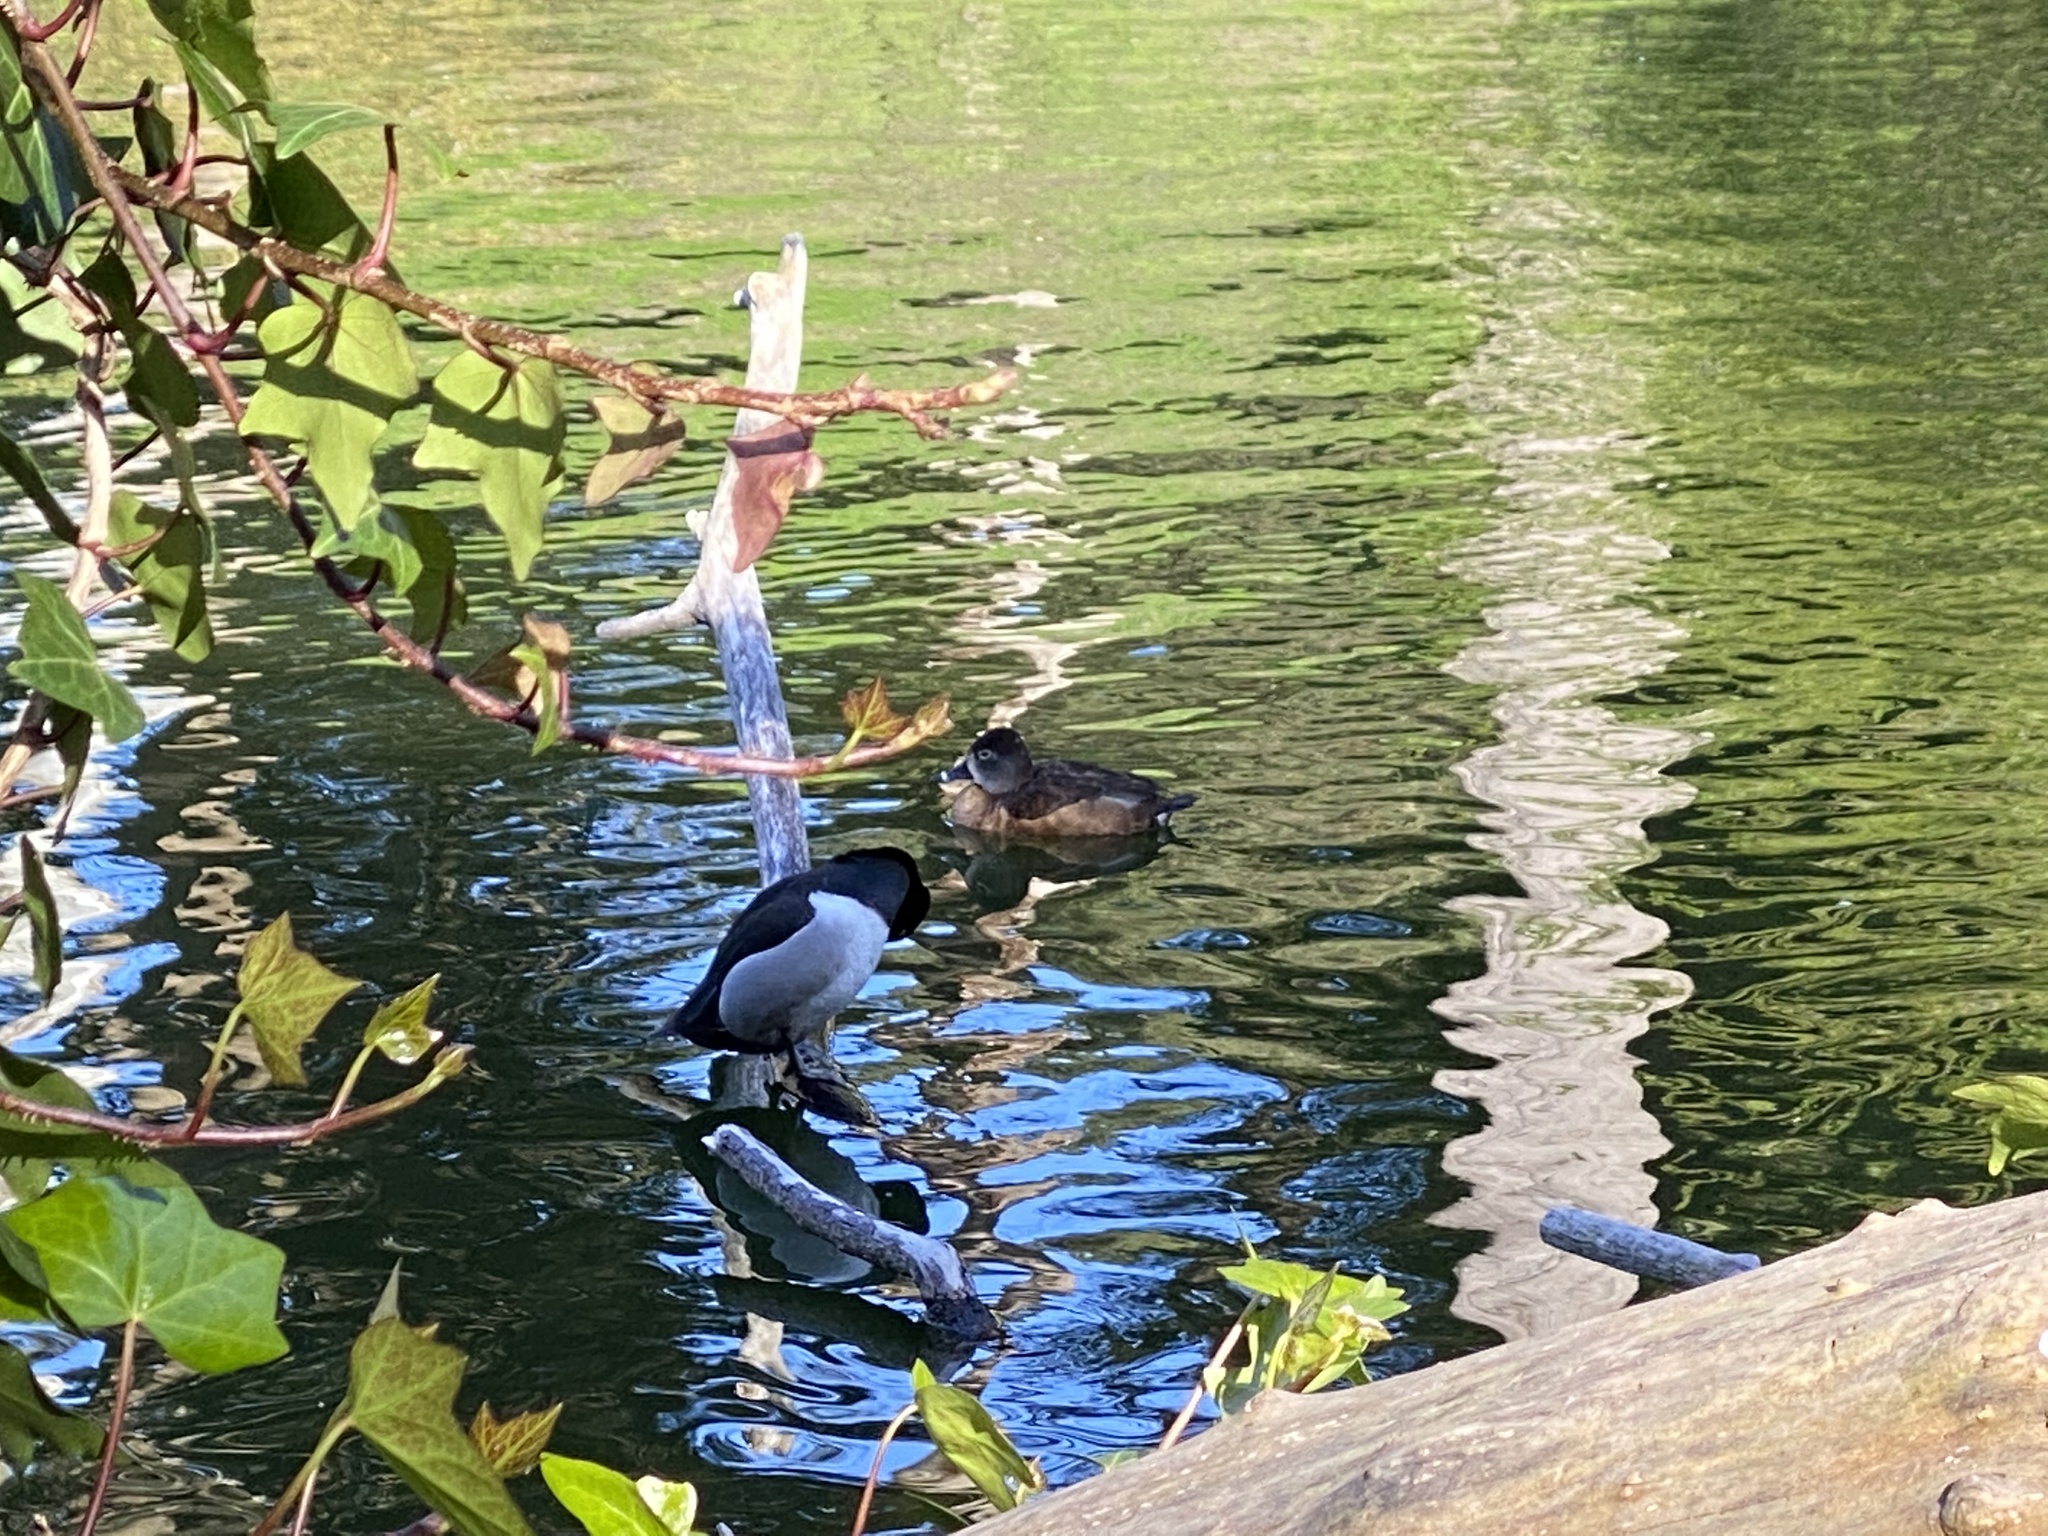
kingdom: Animalia
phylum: Chordata
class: Aves
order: Anseriformes
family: Anatidae
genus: Aythya
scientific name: Aythya collaris
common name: Ring-necked duck
